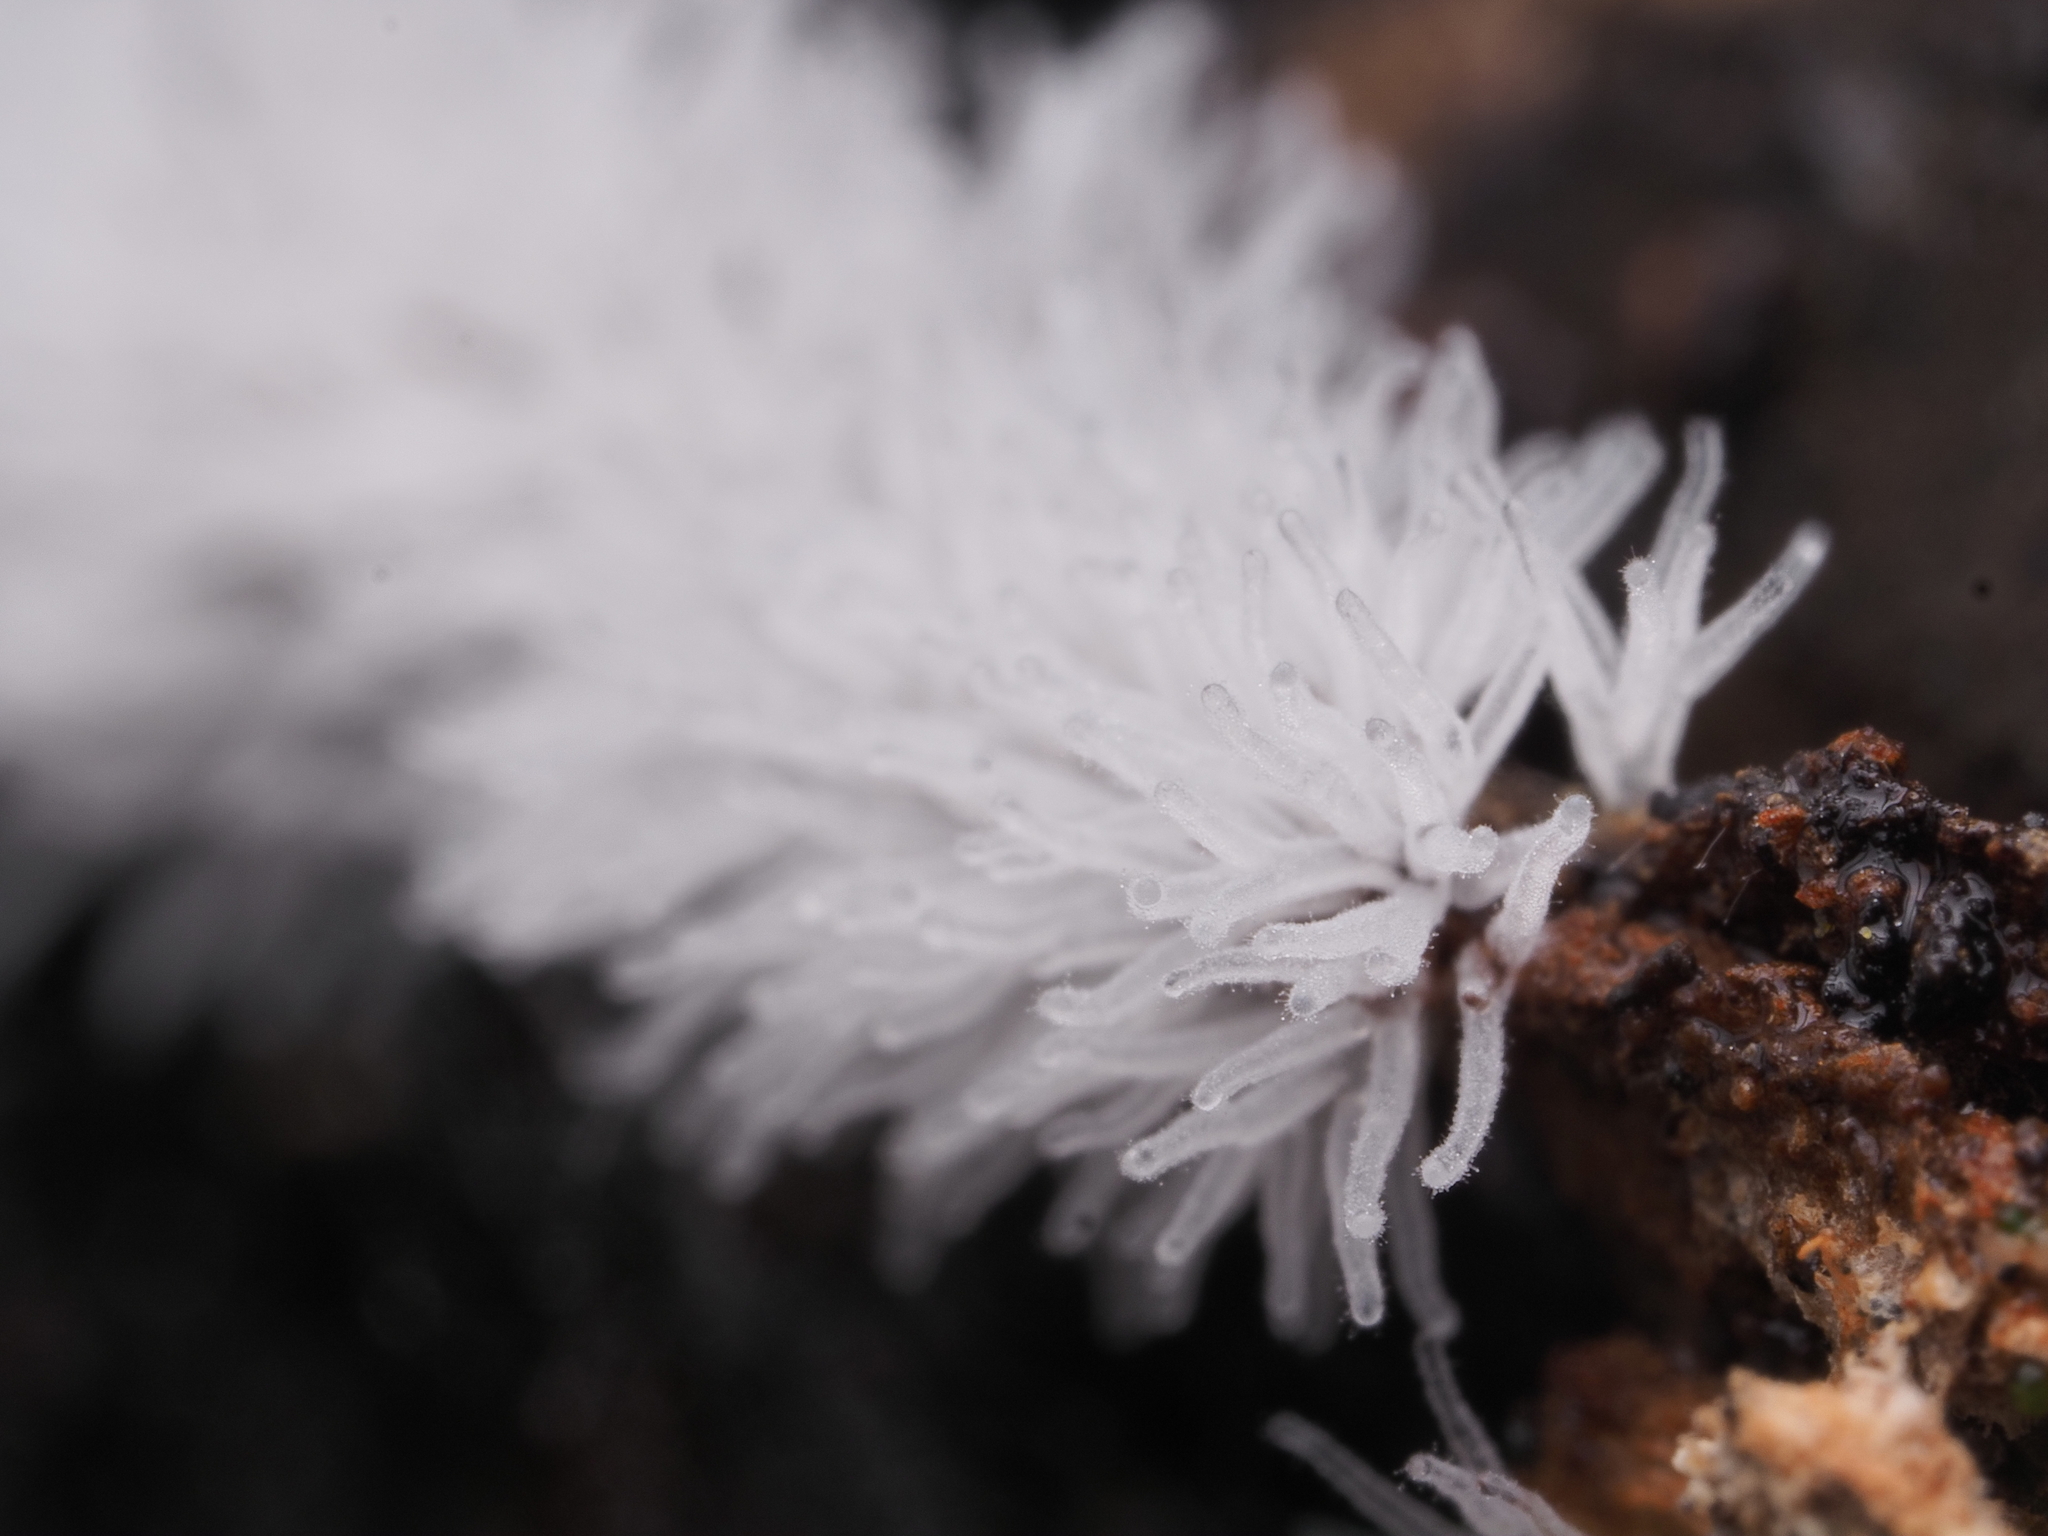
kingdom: Protozoa
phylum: Mycetozoa
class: Protosteliomycetes
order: Ceratiomyxales
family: Ceratiomyxaceae
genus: Ceratiomyxa
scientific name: Ceratiomyxa fruticulosa
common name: Honeycomb coral slime mold
